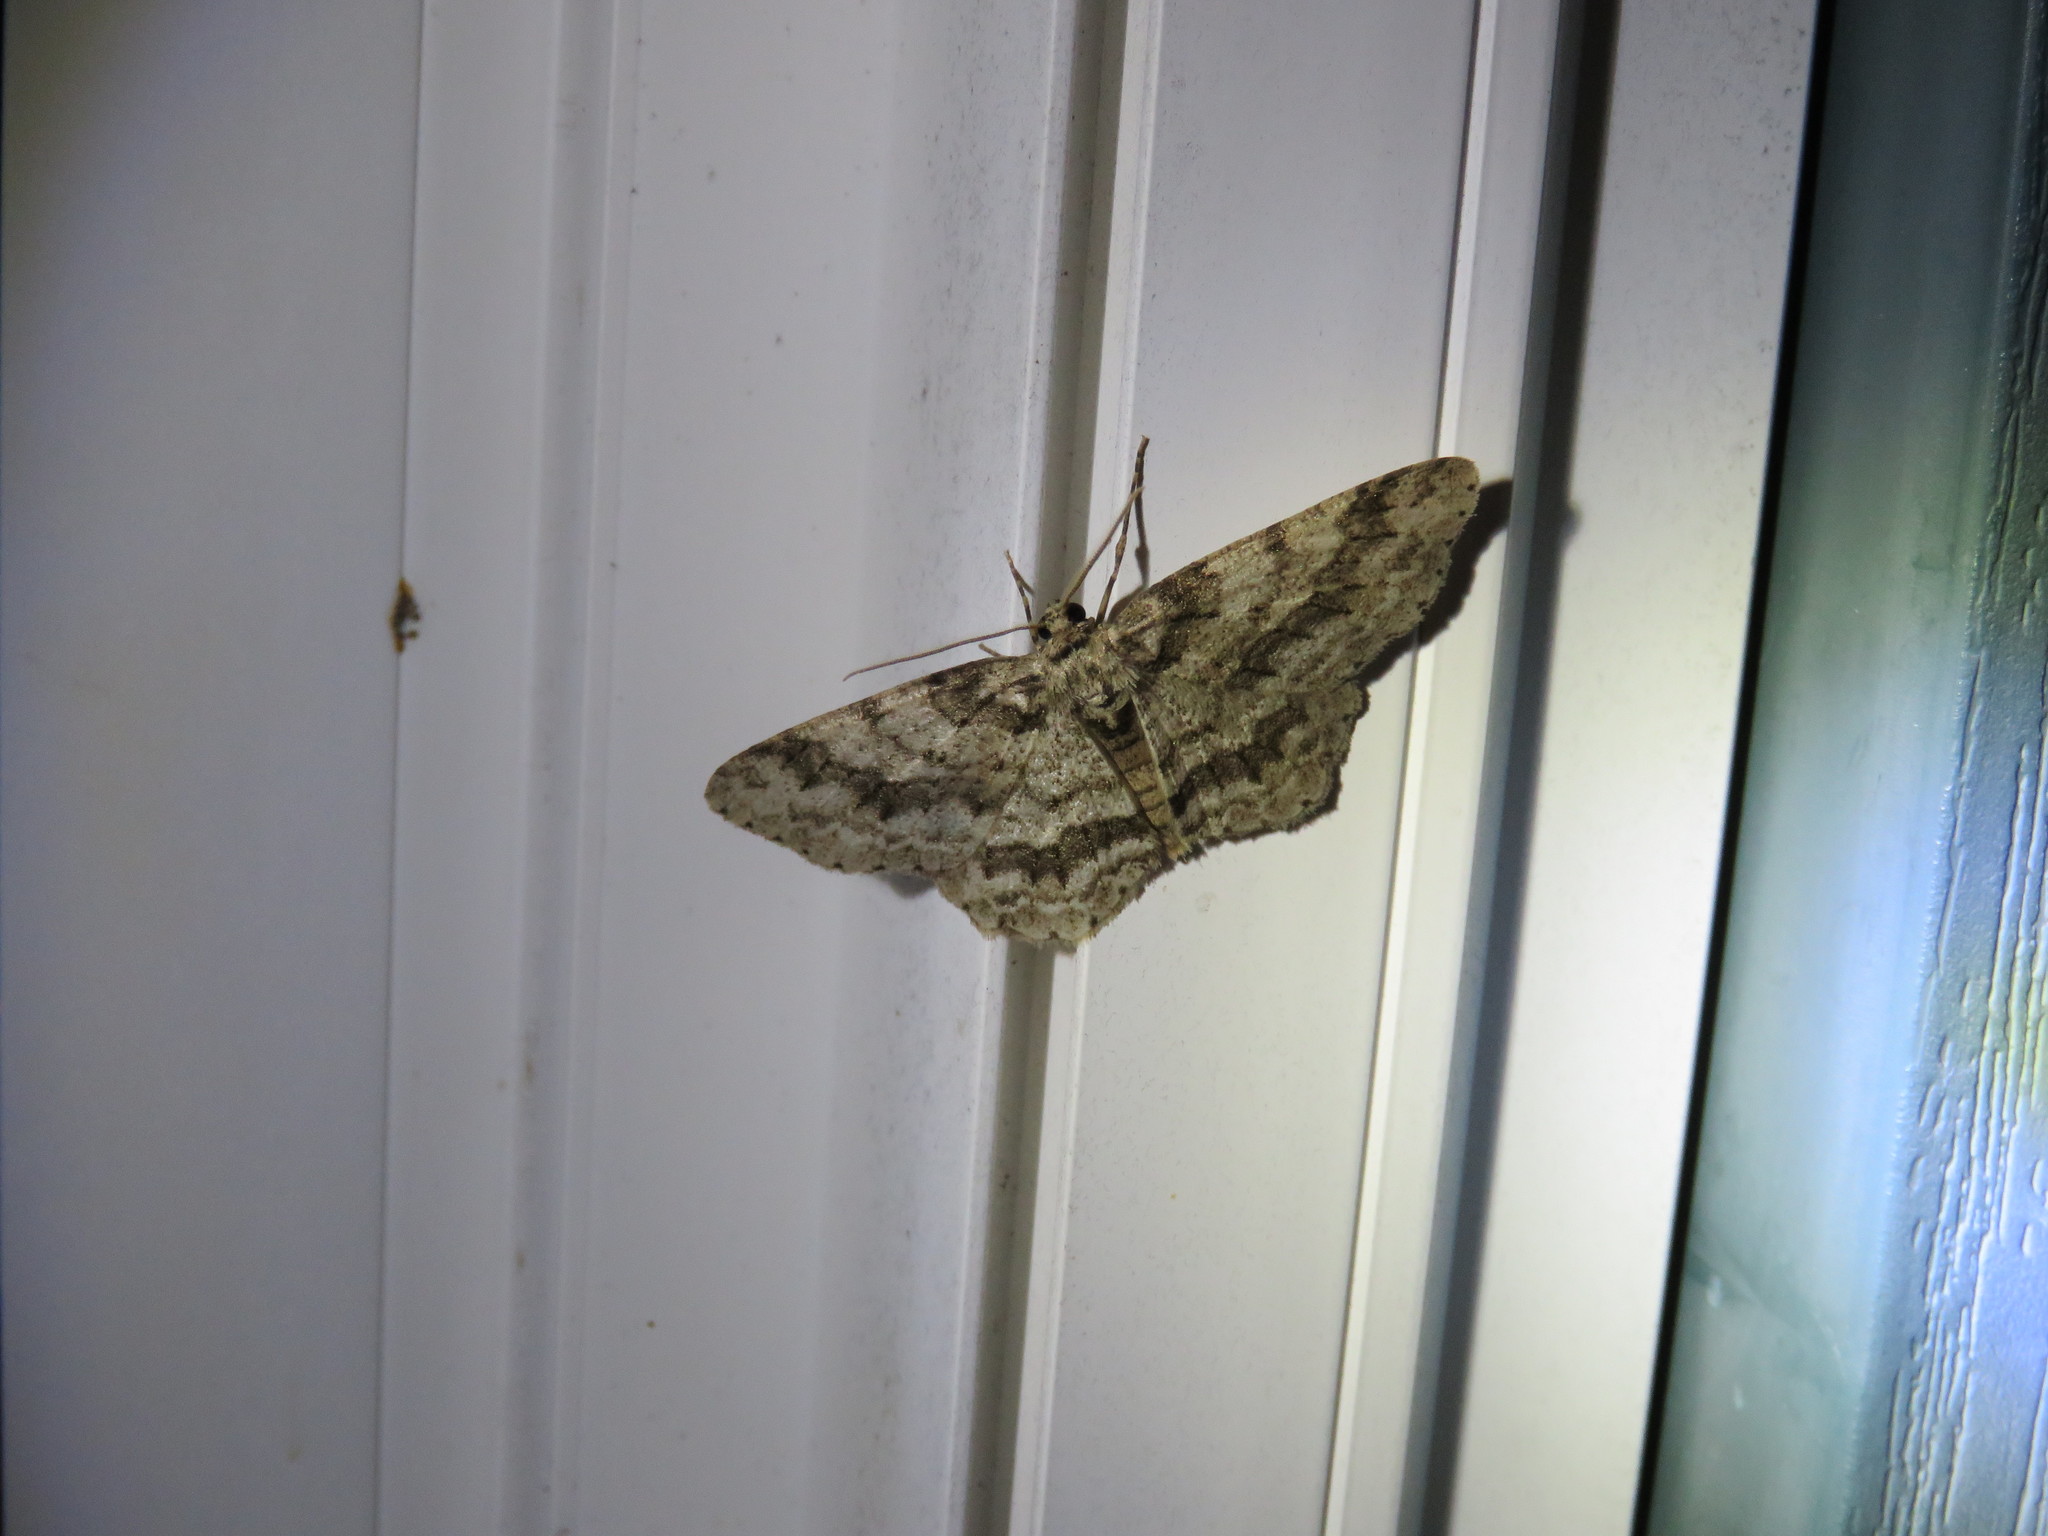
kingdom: Animalia
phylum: Arthropoda
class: Insecta
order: Lepidoptera
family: Geometridae
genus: Ectropis
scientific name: Ectropis crepuscularia
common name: Engrailed
